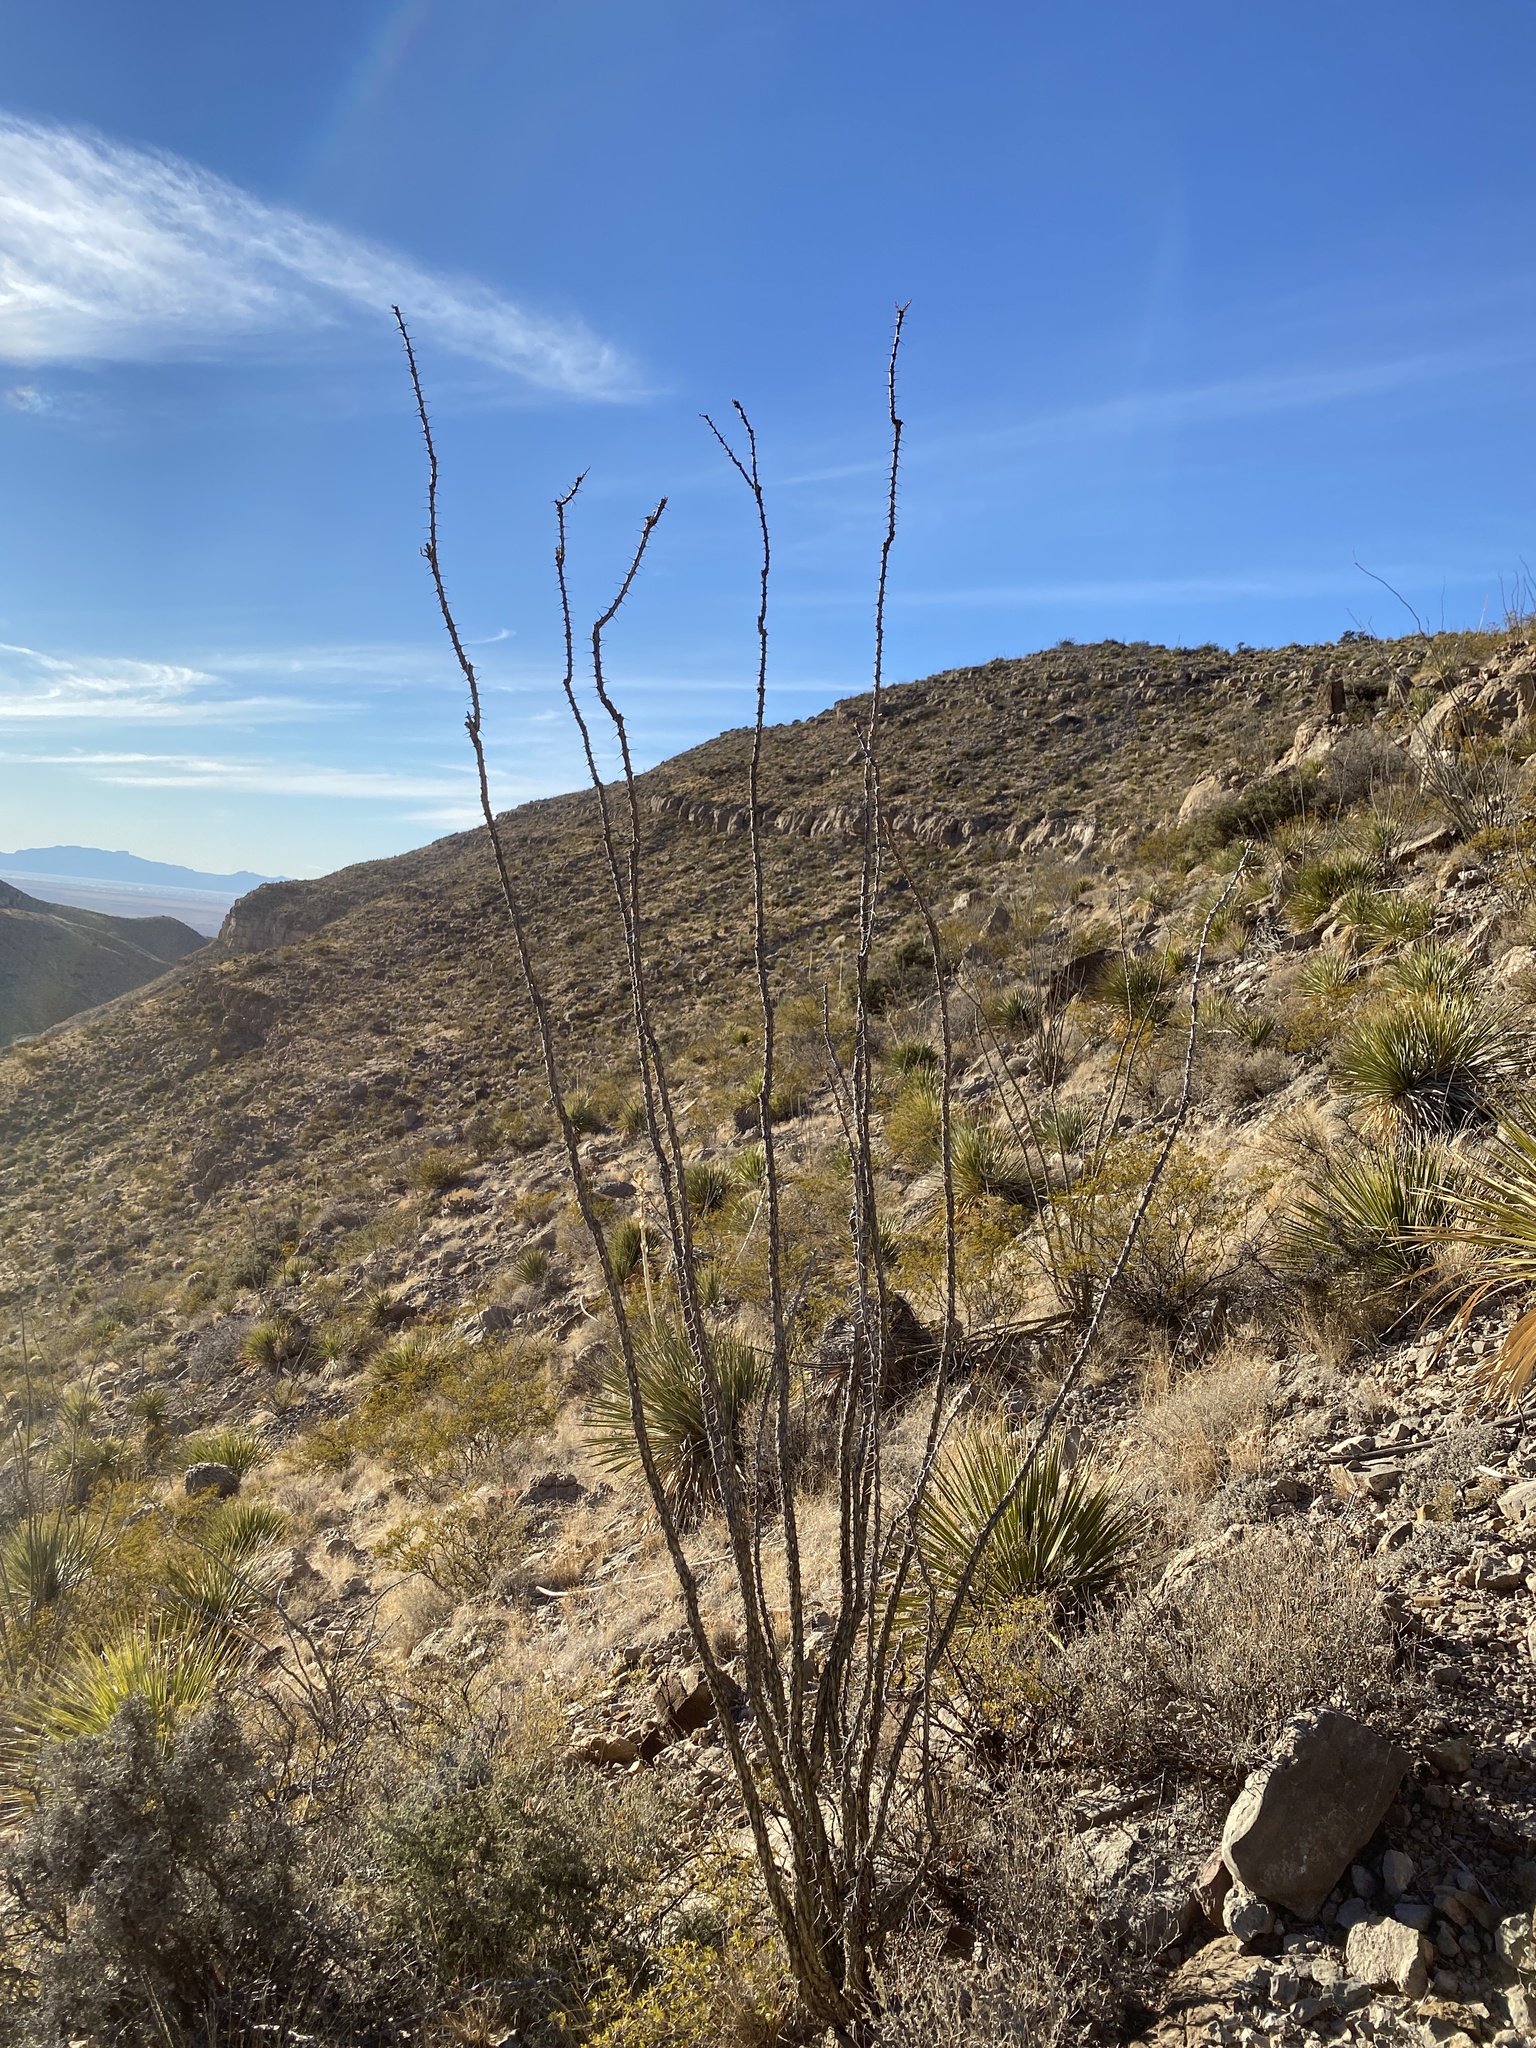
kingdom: Plantae
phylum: Tracheophyta
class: Magnoliopsida
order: Ericales
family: Fouquieriaceae
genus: Fouquieria
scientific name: Fouquieria splendens
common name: Vine-cactus
